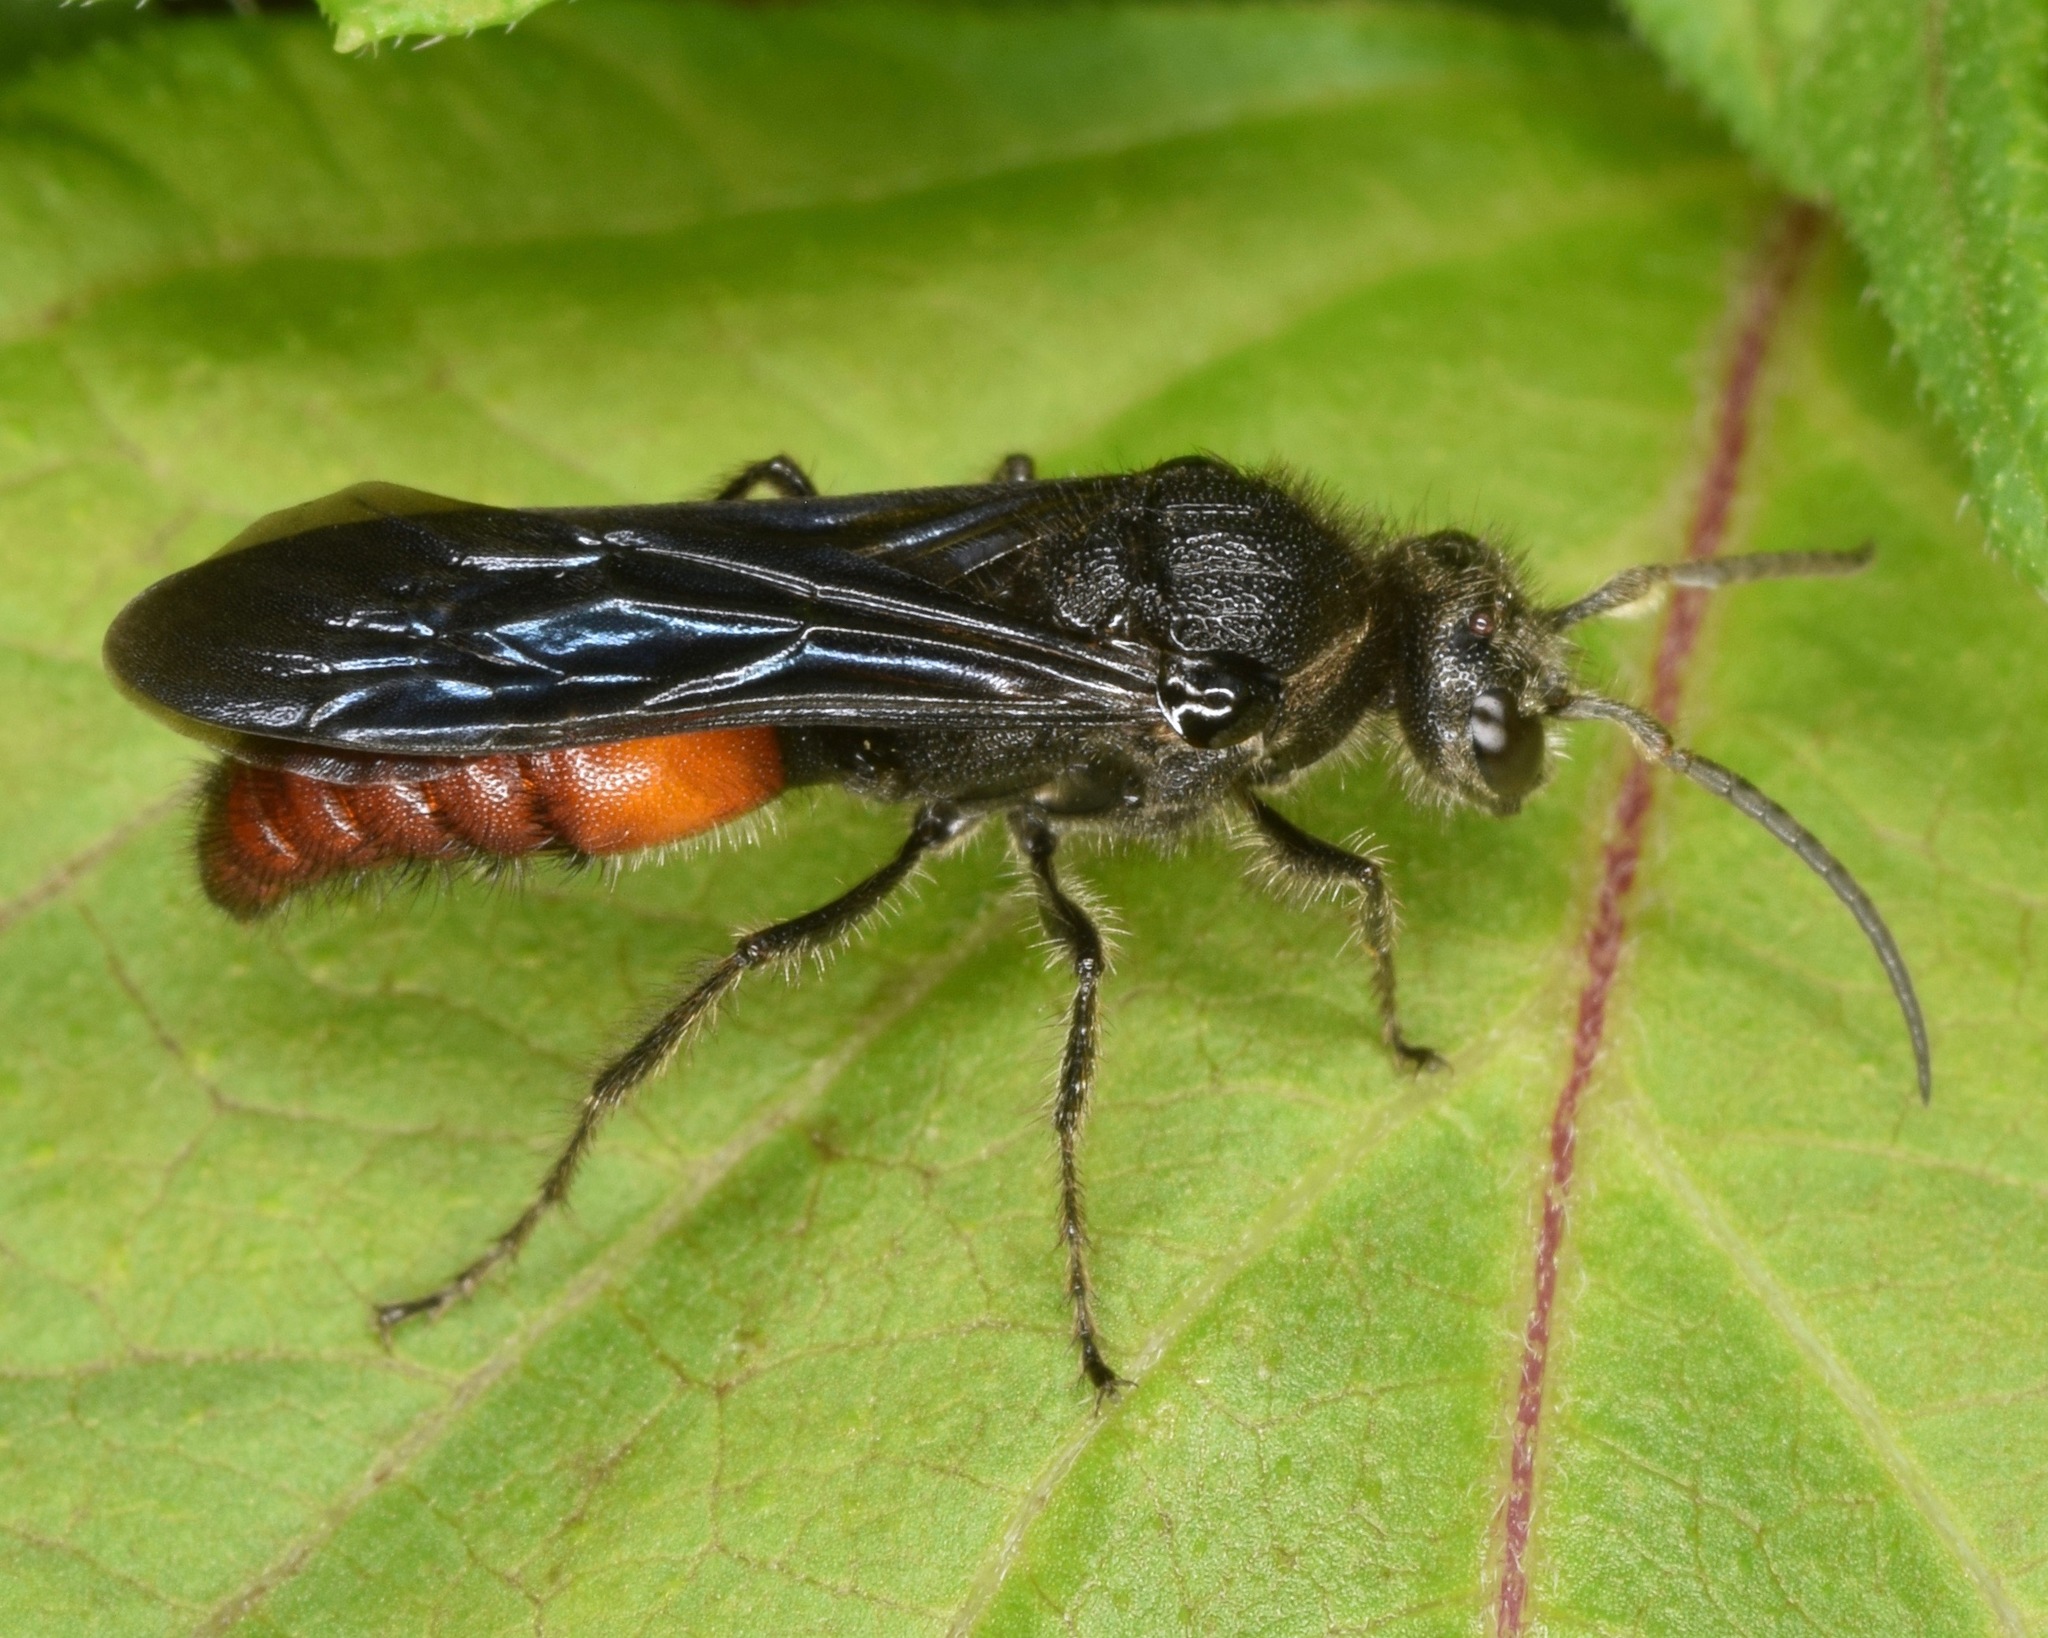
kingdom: Animalia
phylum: Arthropoda
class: Insecta
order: Hymenoptera
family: Mutillidae
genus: Timulla
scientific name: Timulla
